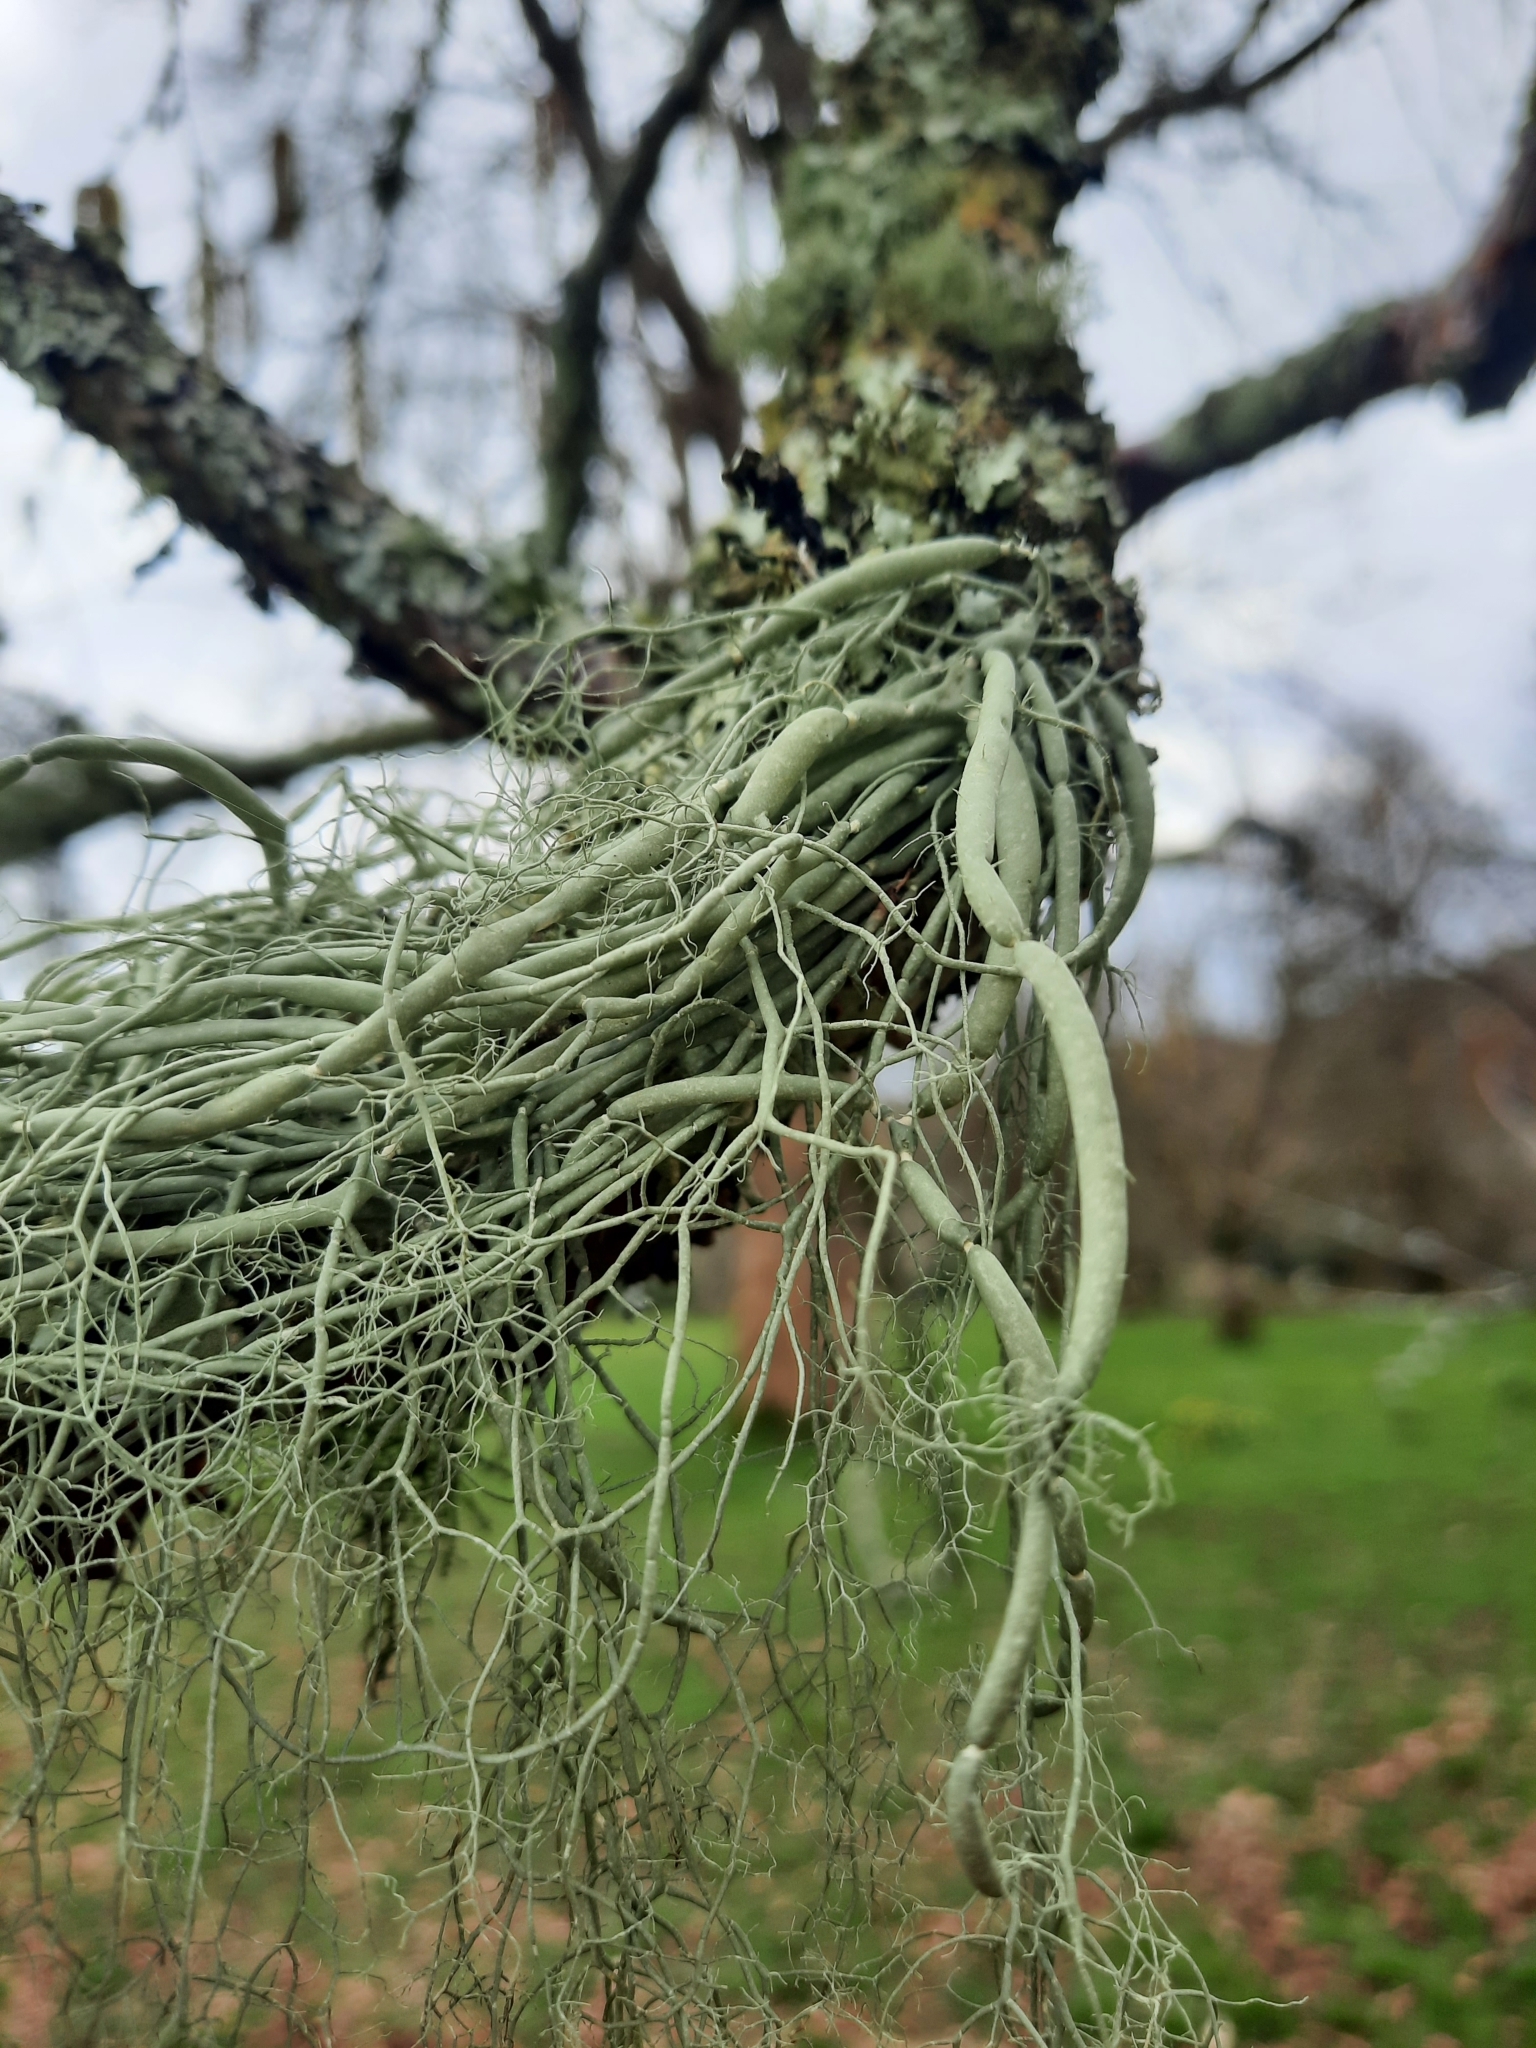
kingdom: Fungi
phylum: Ascomycota
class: Lecanoromycetes
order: Lecanorales
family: Parmeliaceae
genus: Usnea
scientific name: Usnea articulata
